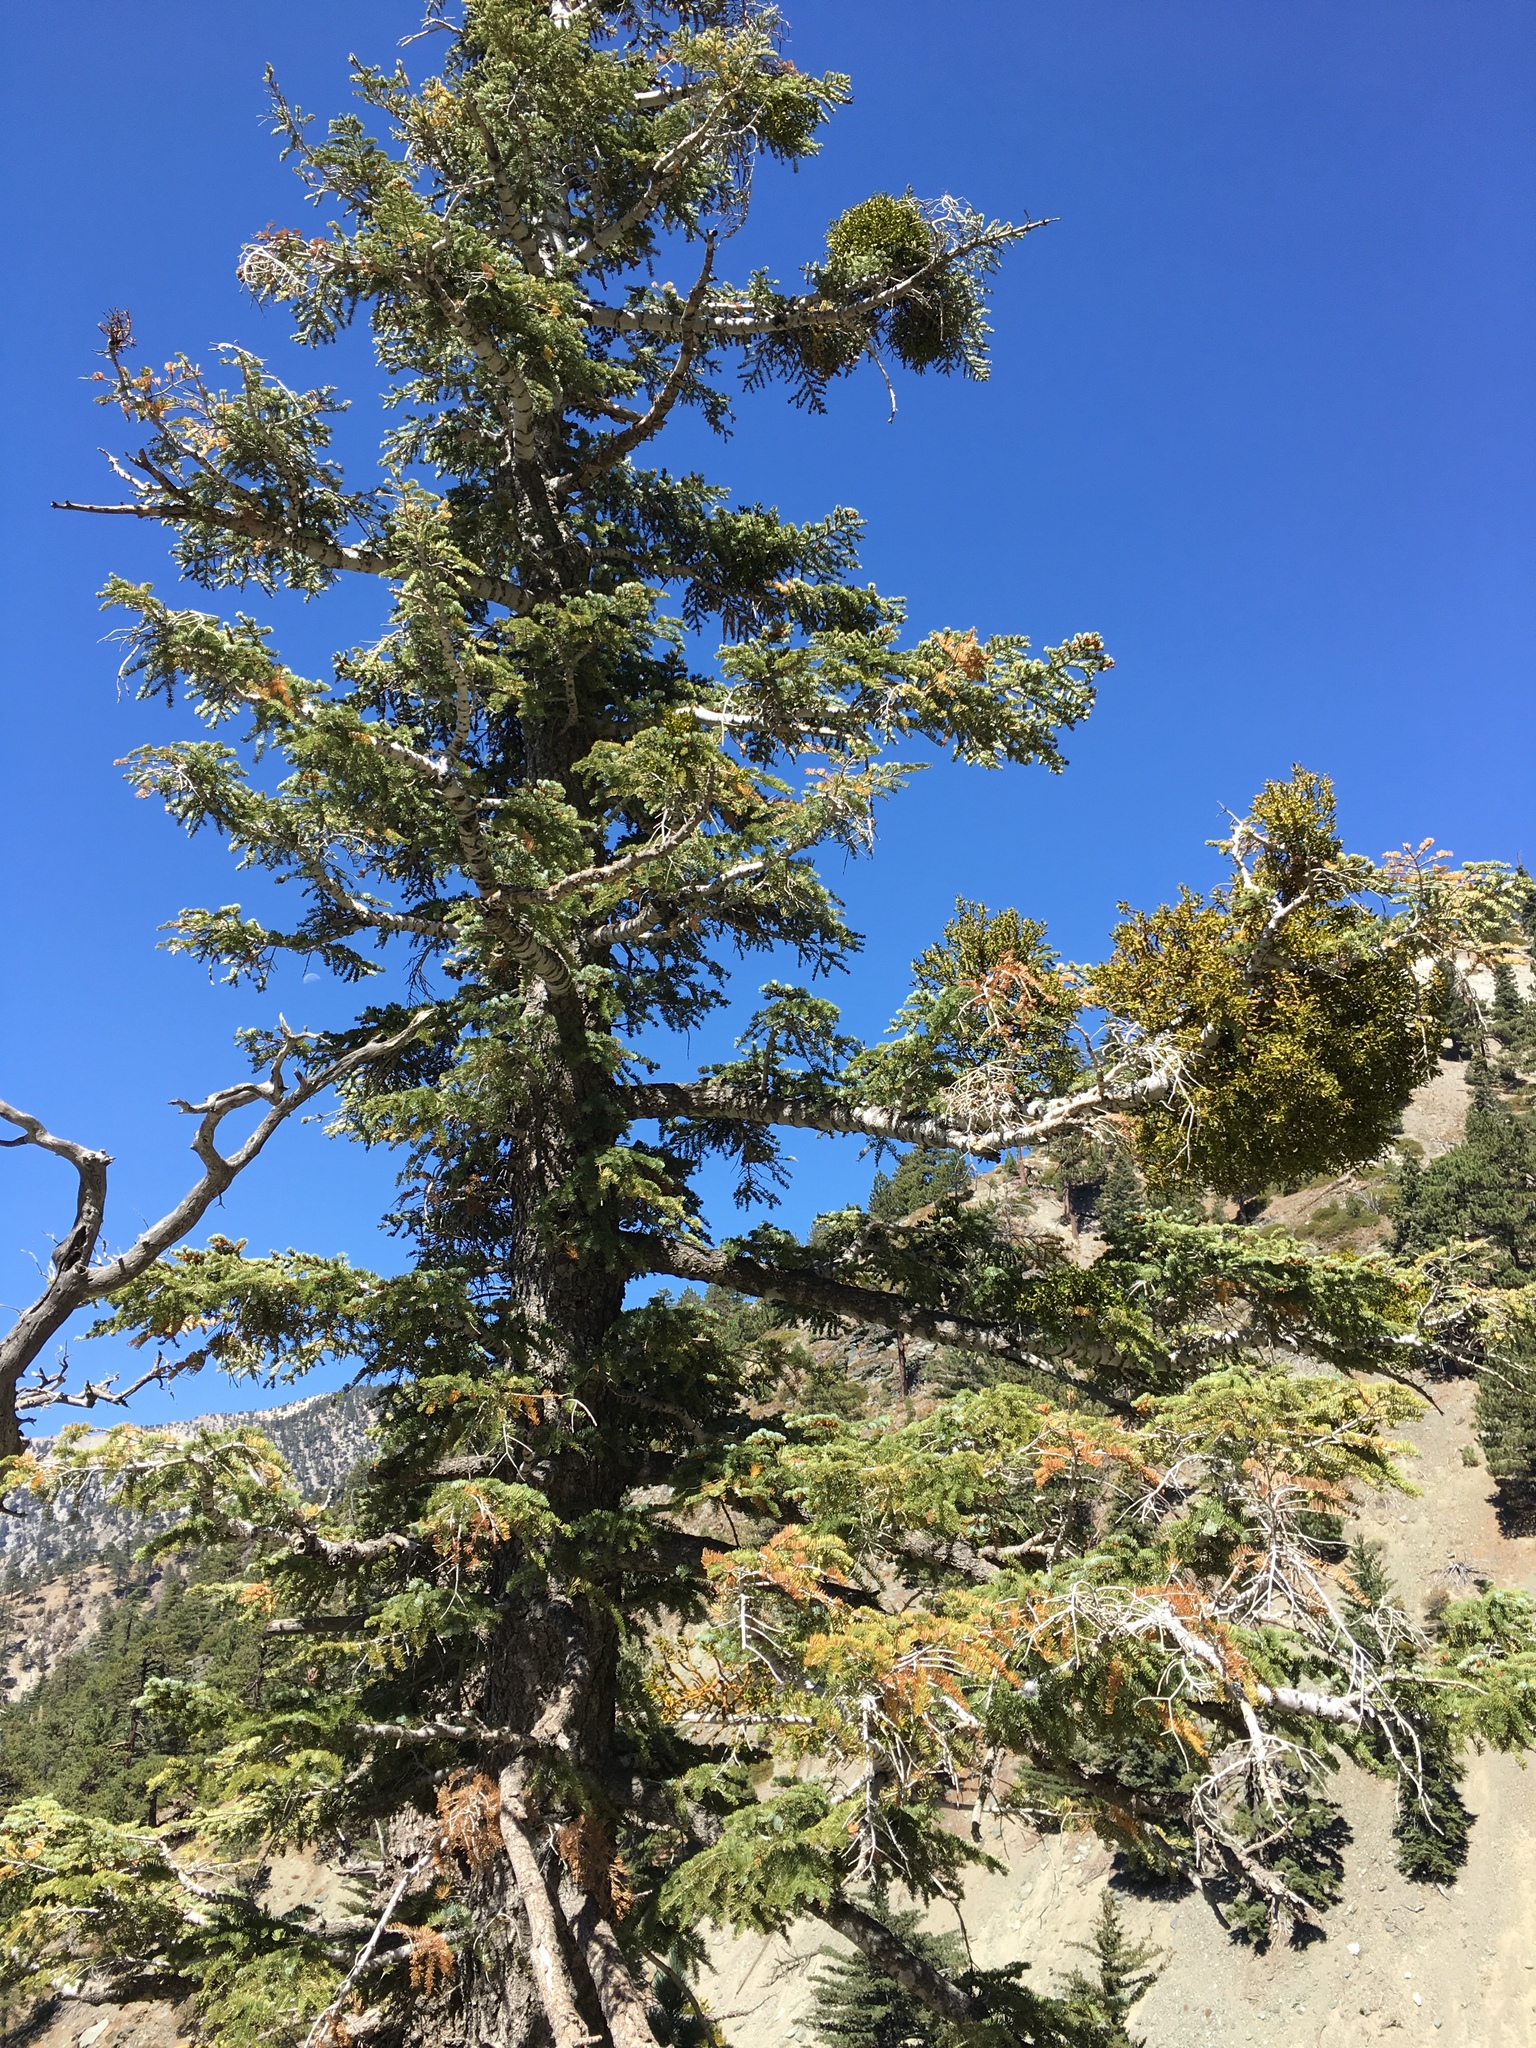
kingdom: Plantae
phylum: Tracheophyta
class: Pinopsida
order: Pinales
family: Pinaceae
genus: Abies
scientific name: Abies concolor
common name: Colorado fir
